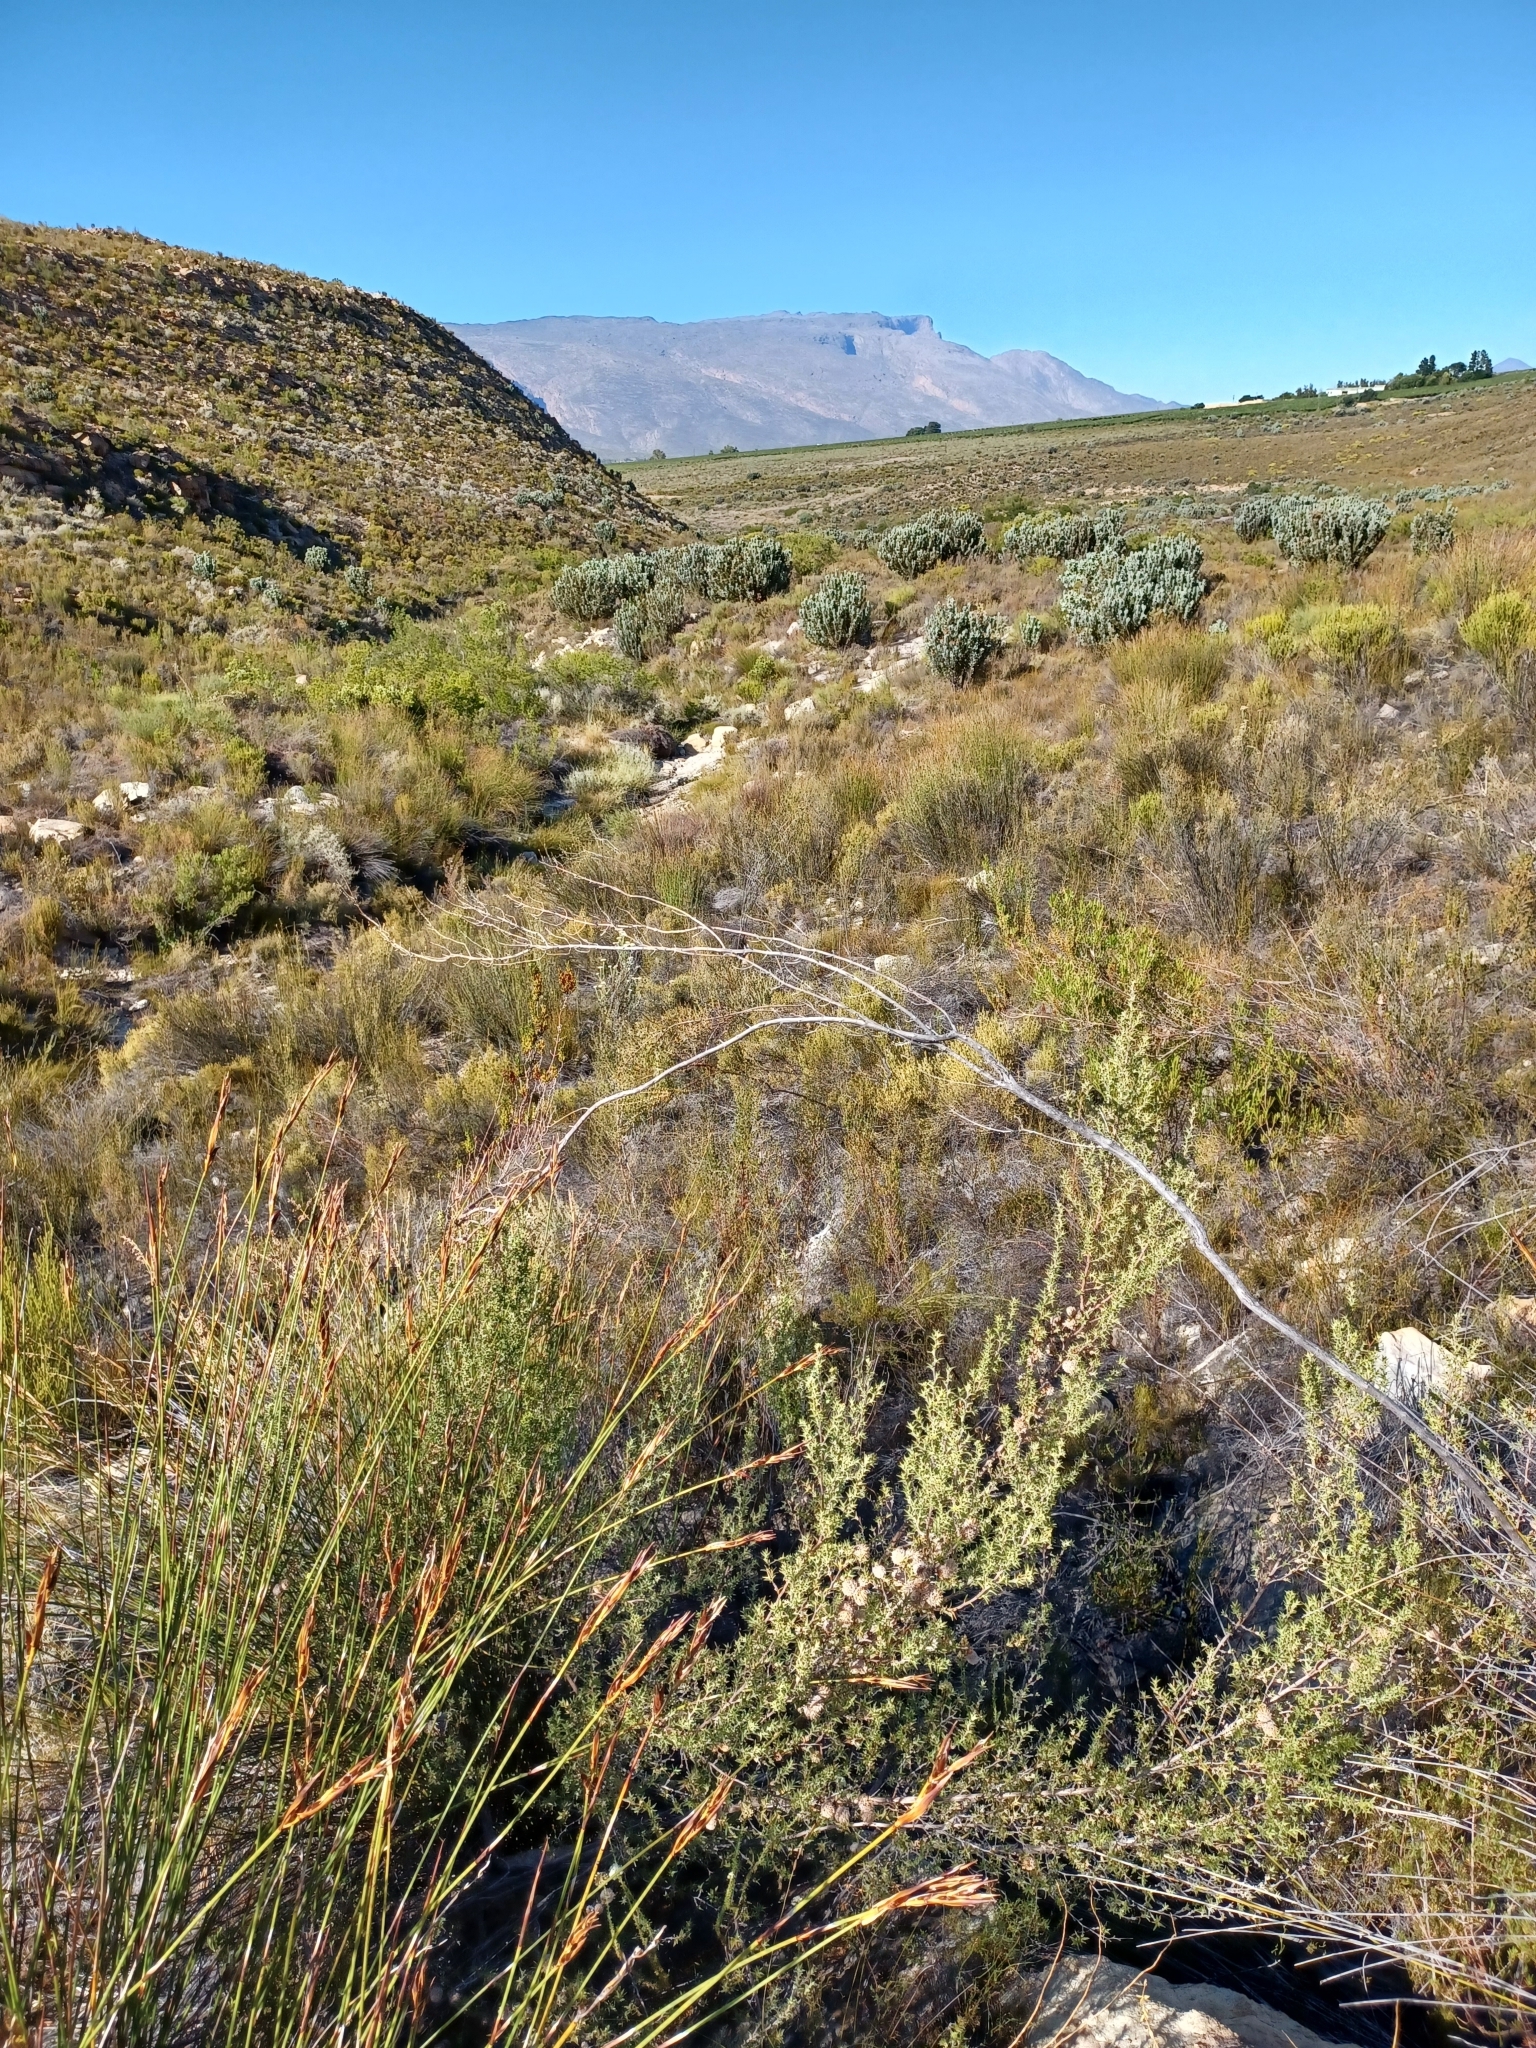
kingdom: Plantae
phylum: Tracheophyta
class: Magnoliopsida
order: Proteales
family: Proteaceae
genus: Protea
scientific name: Protea laurifolia
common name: Grey-leaf sugarbsh
